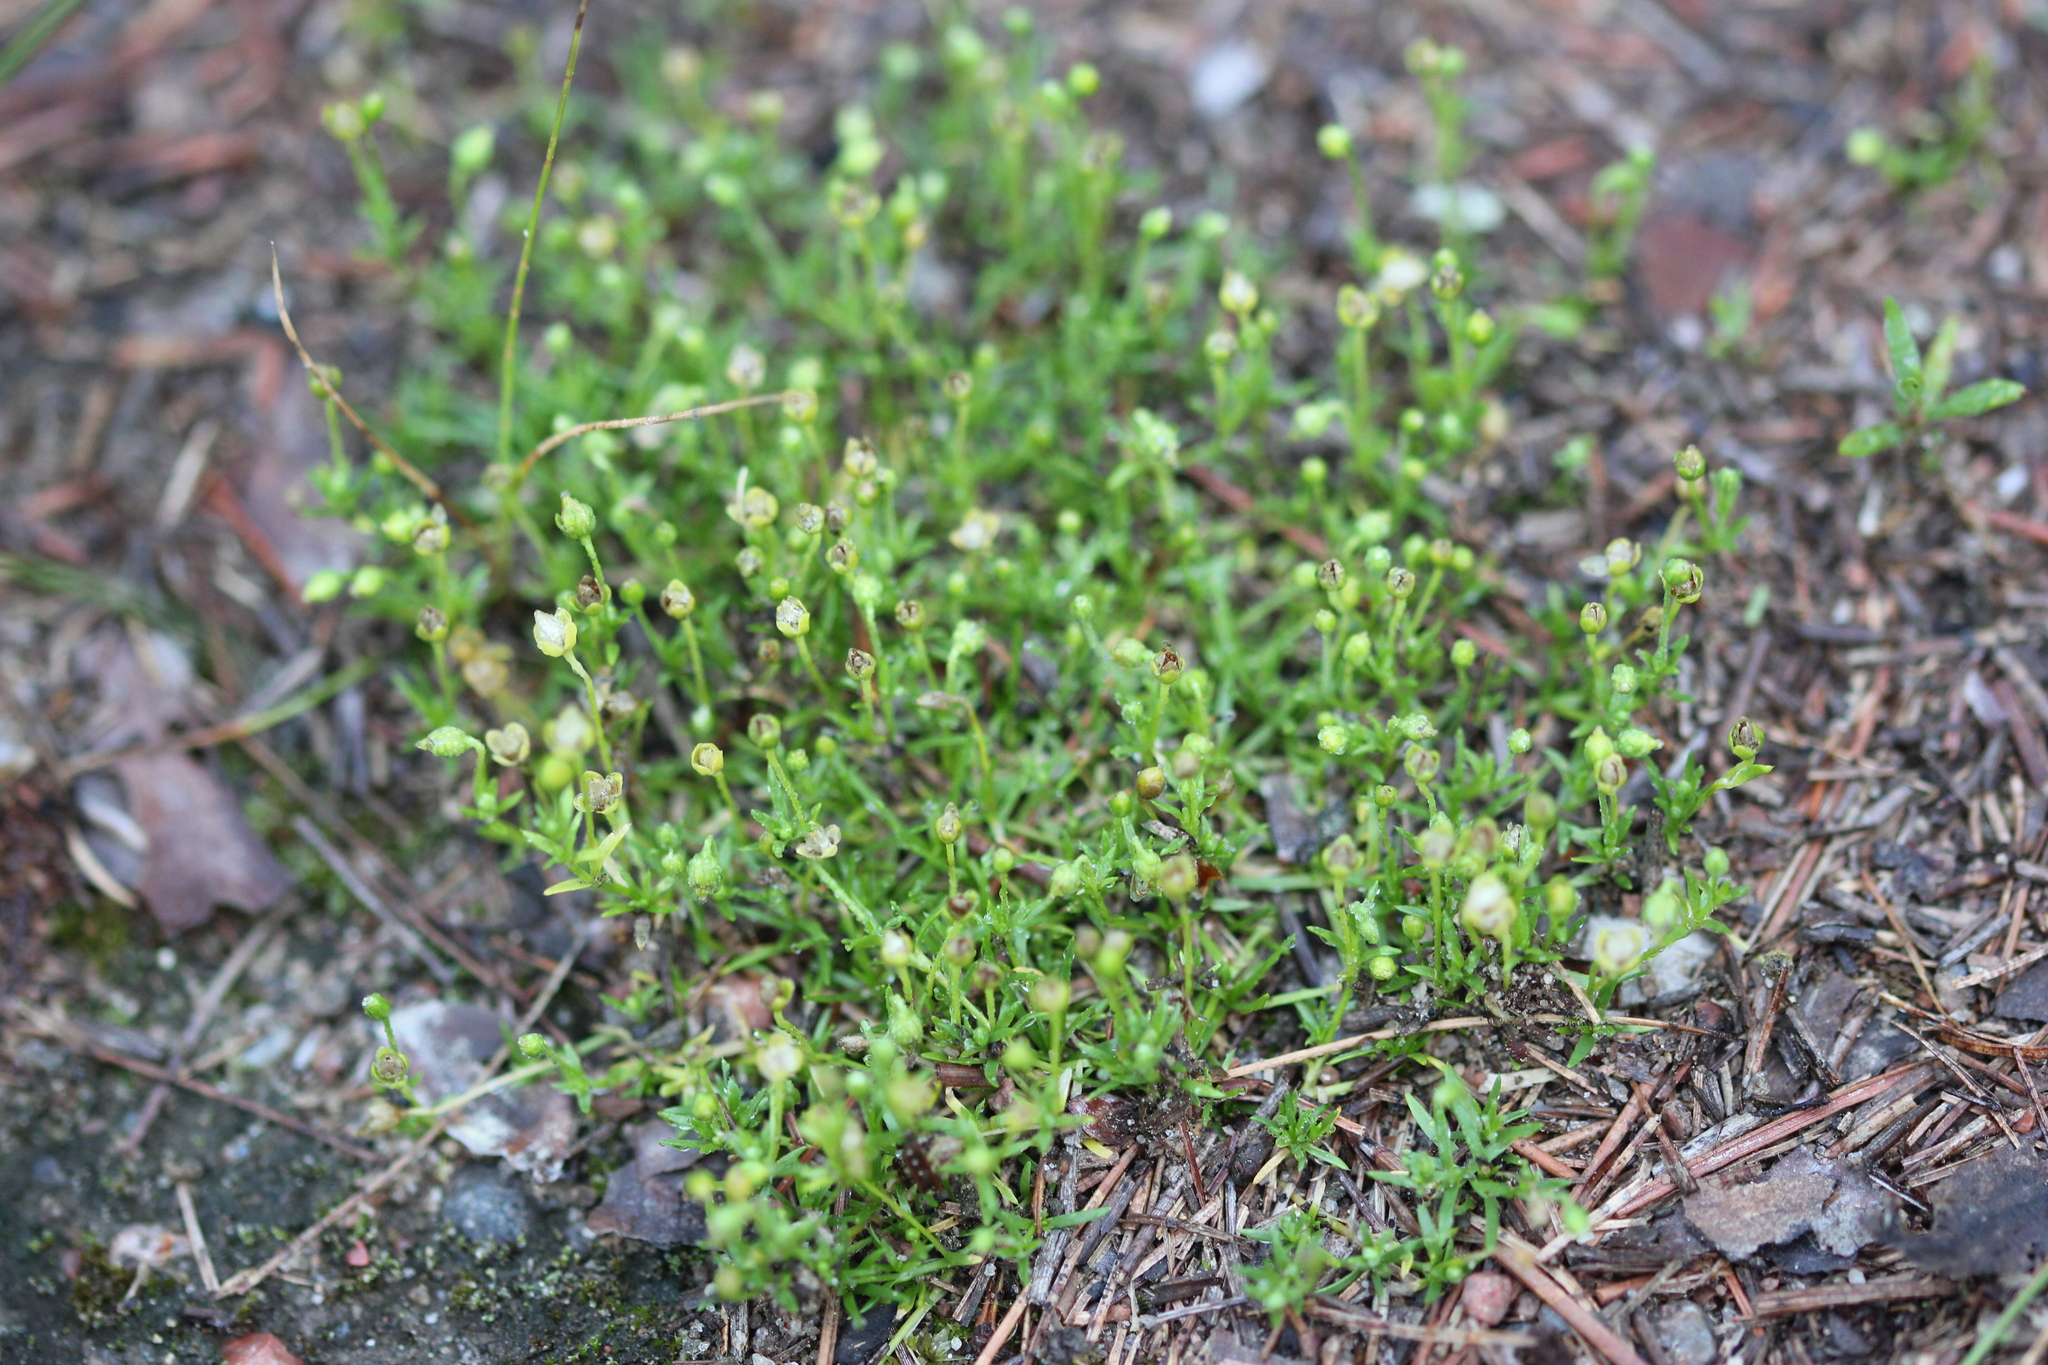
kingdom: Plantae
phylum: Tracheophyta
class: Magnoliopsida
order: Caryophyllales
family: Caryophyllaceae
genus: Sagina
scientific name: Sagina procumbens
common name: Procumbent pearlwort
